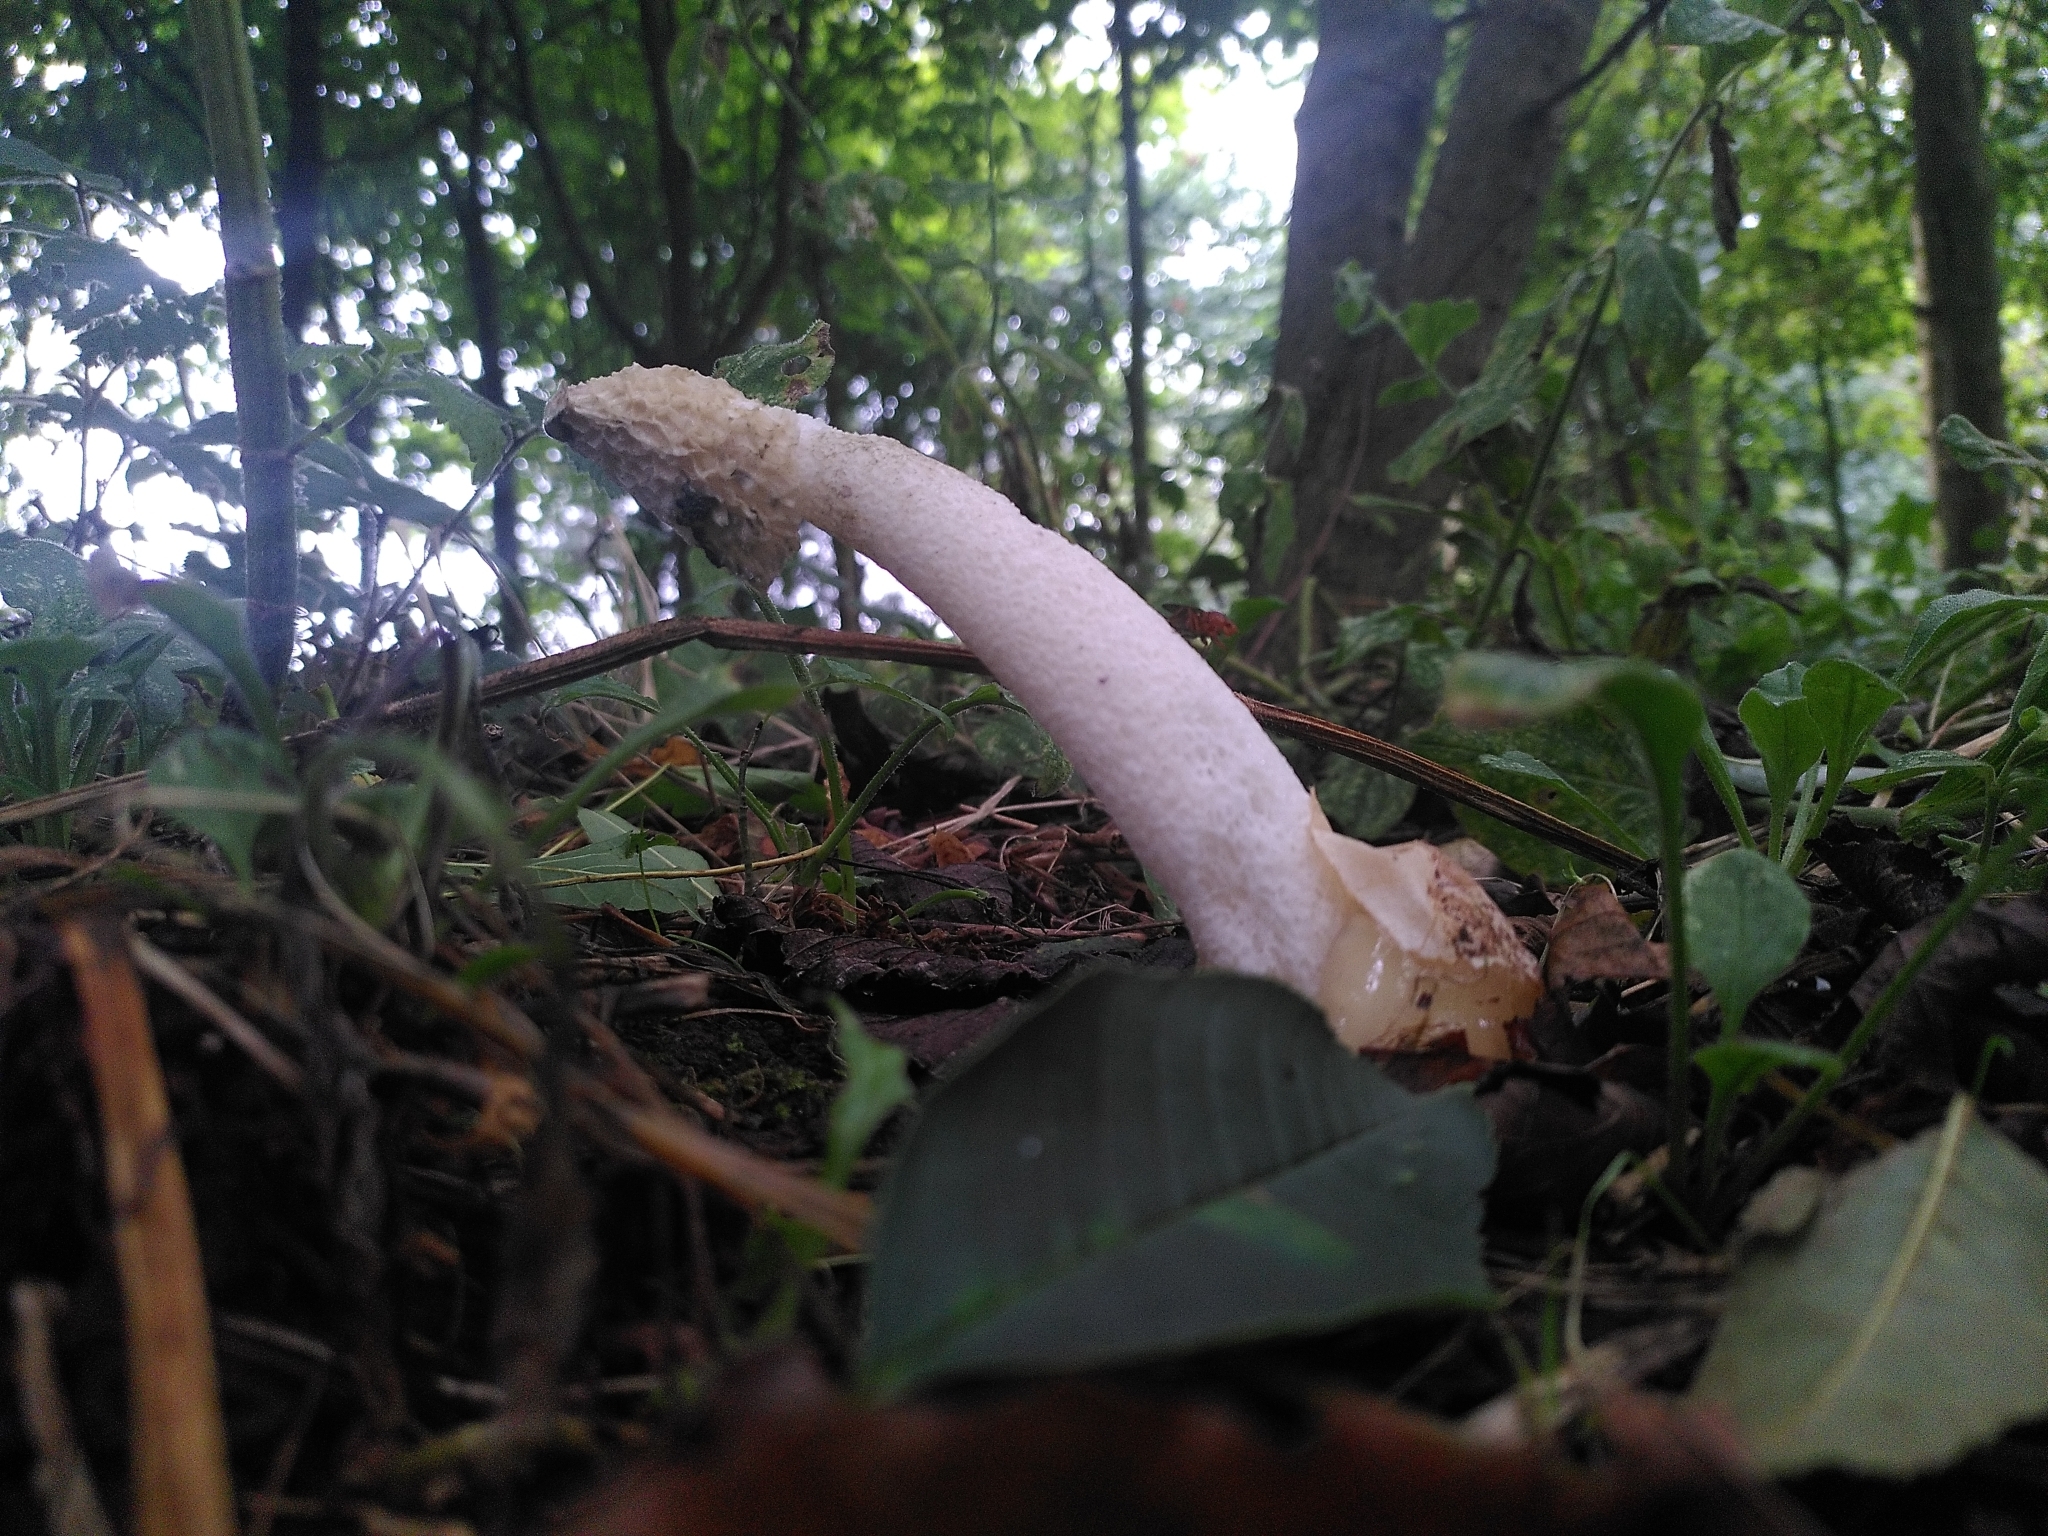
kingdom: Fungi
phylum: Basidiomycota
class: Agaricomycetes
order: Phallales
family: Phallaceae
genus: Phallus
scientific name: Phallus impudicus
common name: Common stinkhorn
